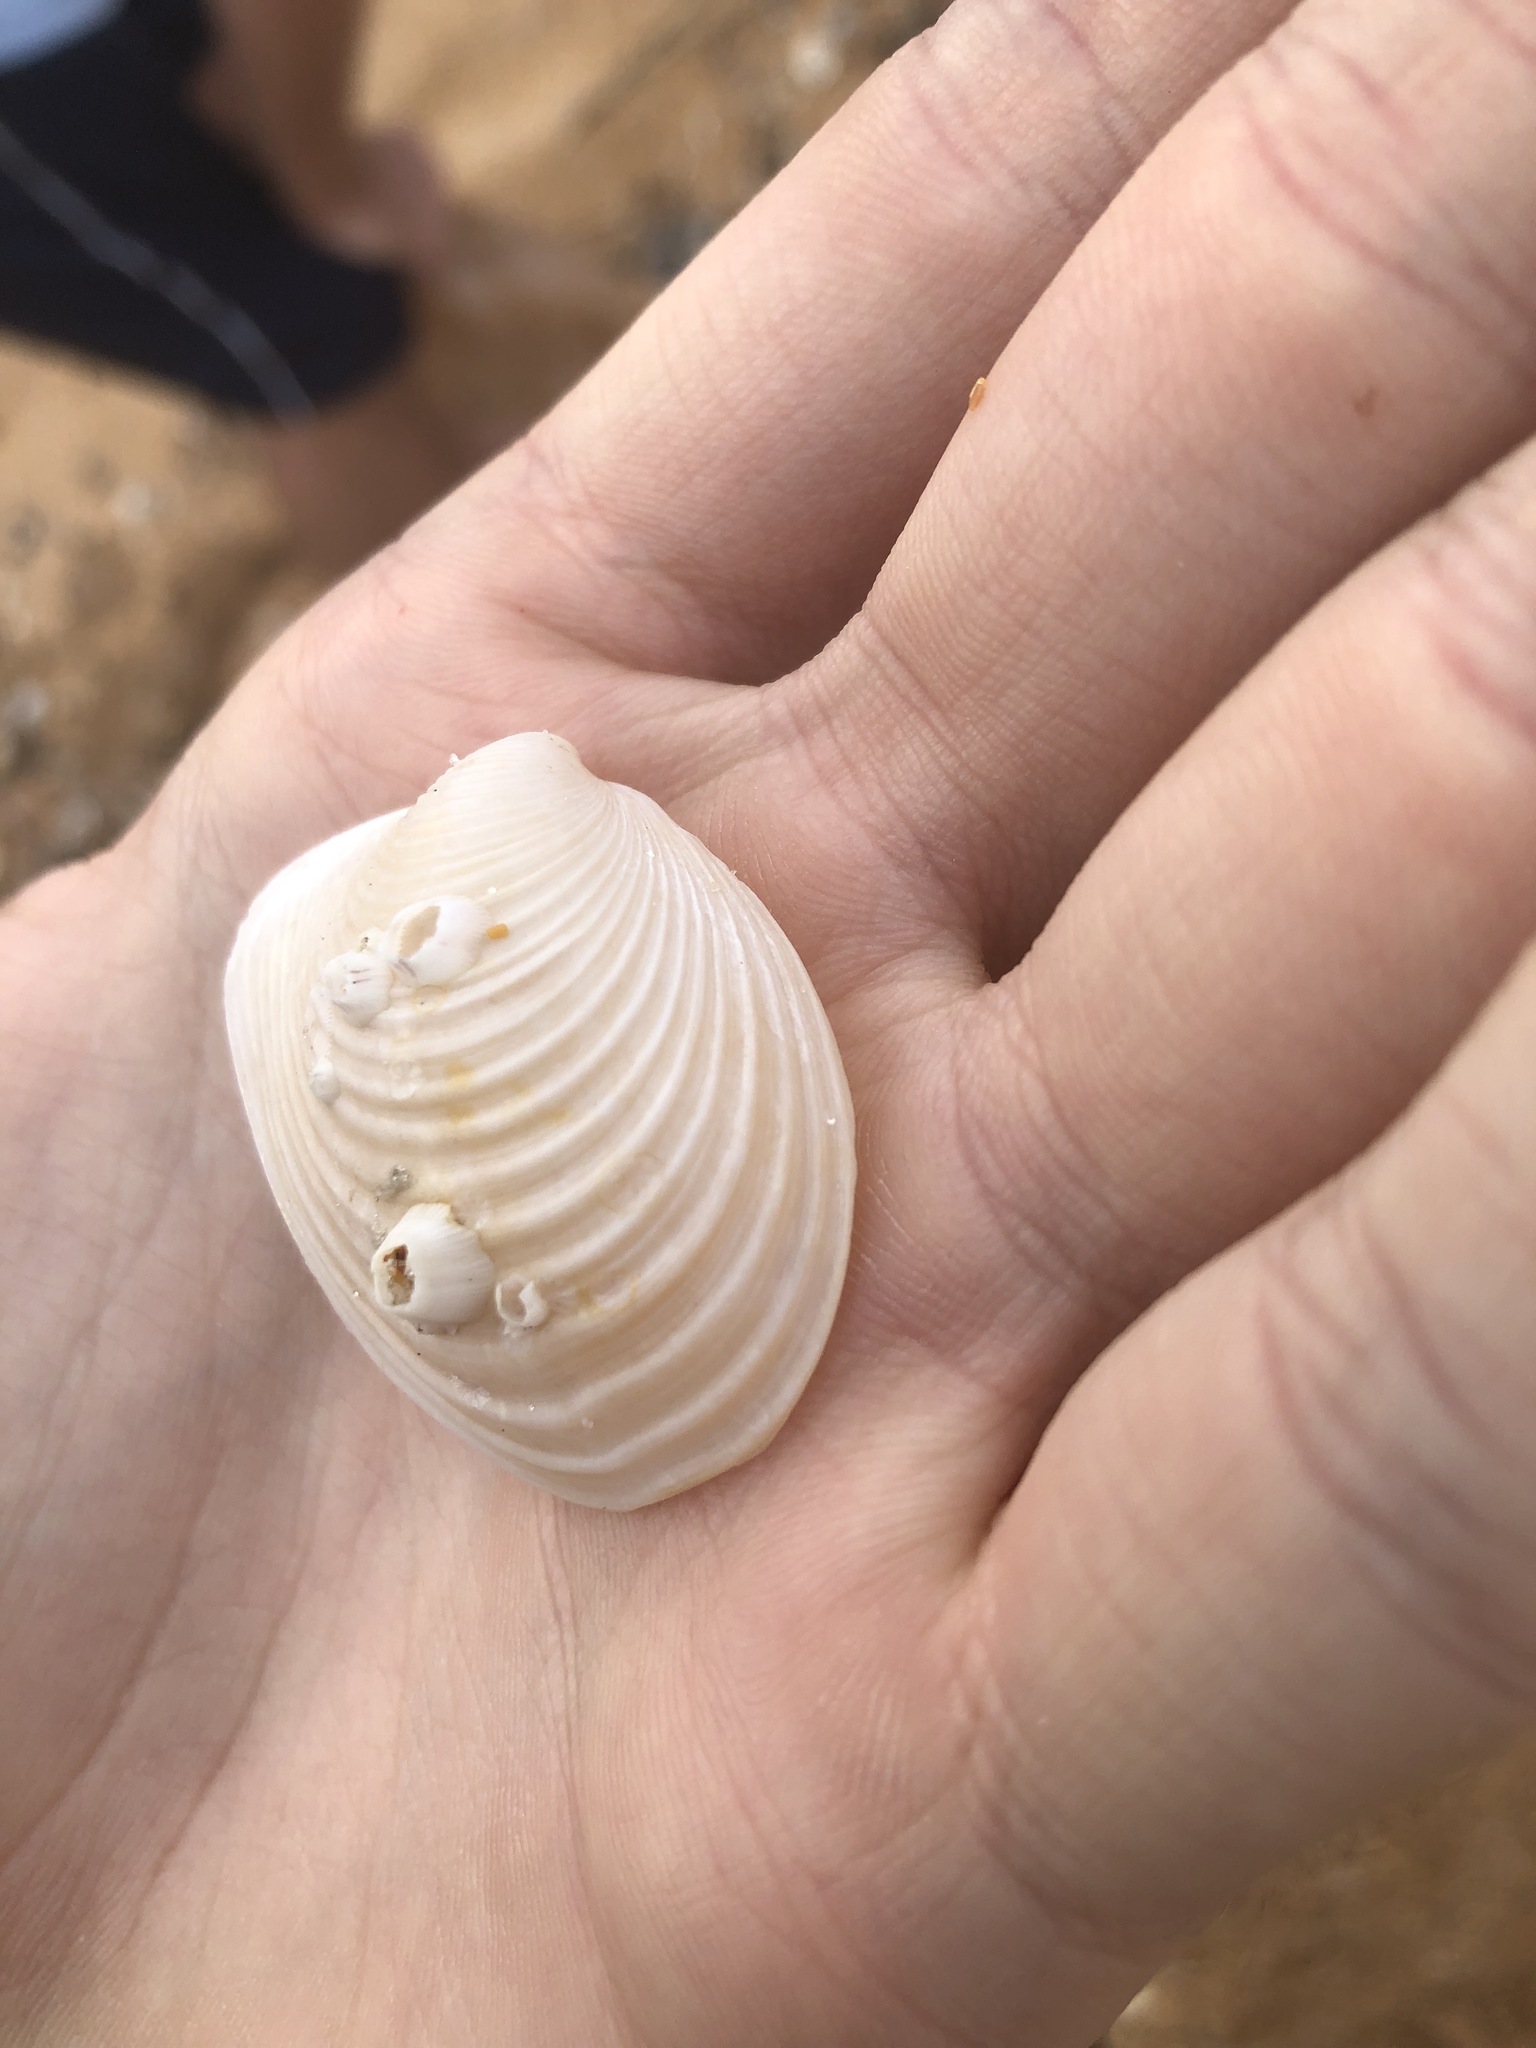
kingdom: Animalia
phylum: Mollusca
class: Bivalvia
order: Venerida
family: Anatinellidae
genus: Raeta
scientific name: Raeta plicatella
